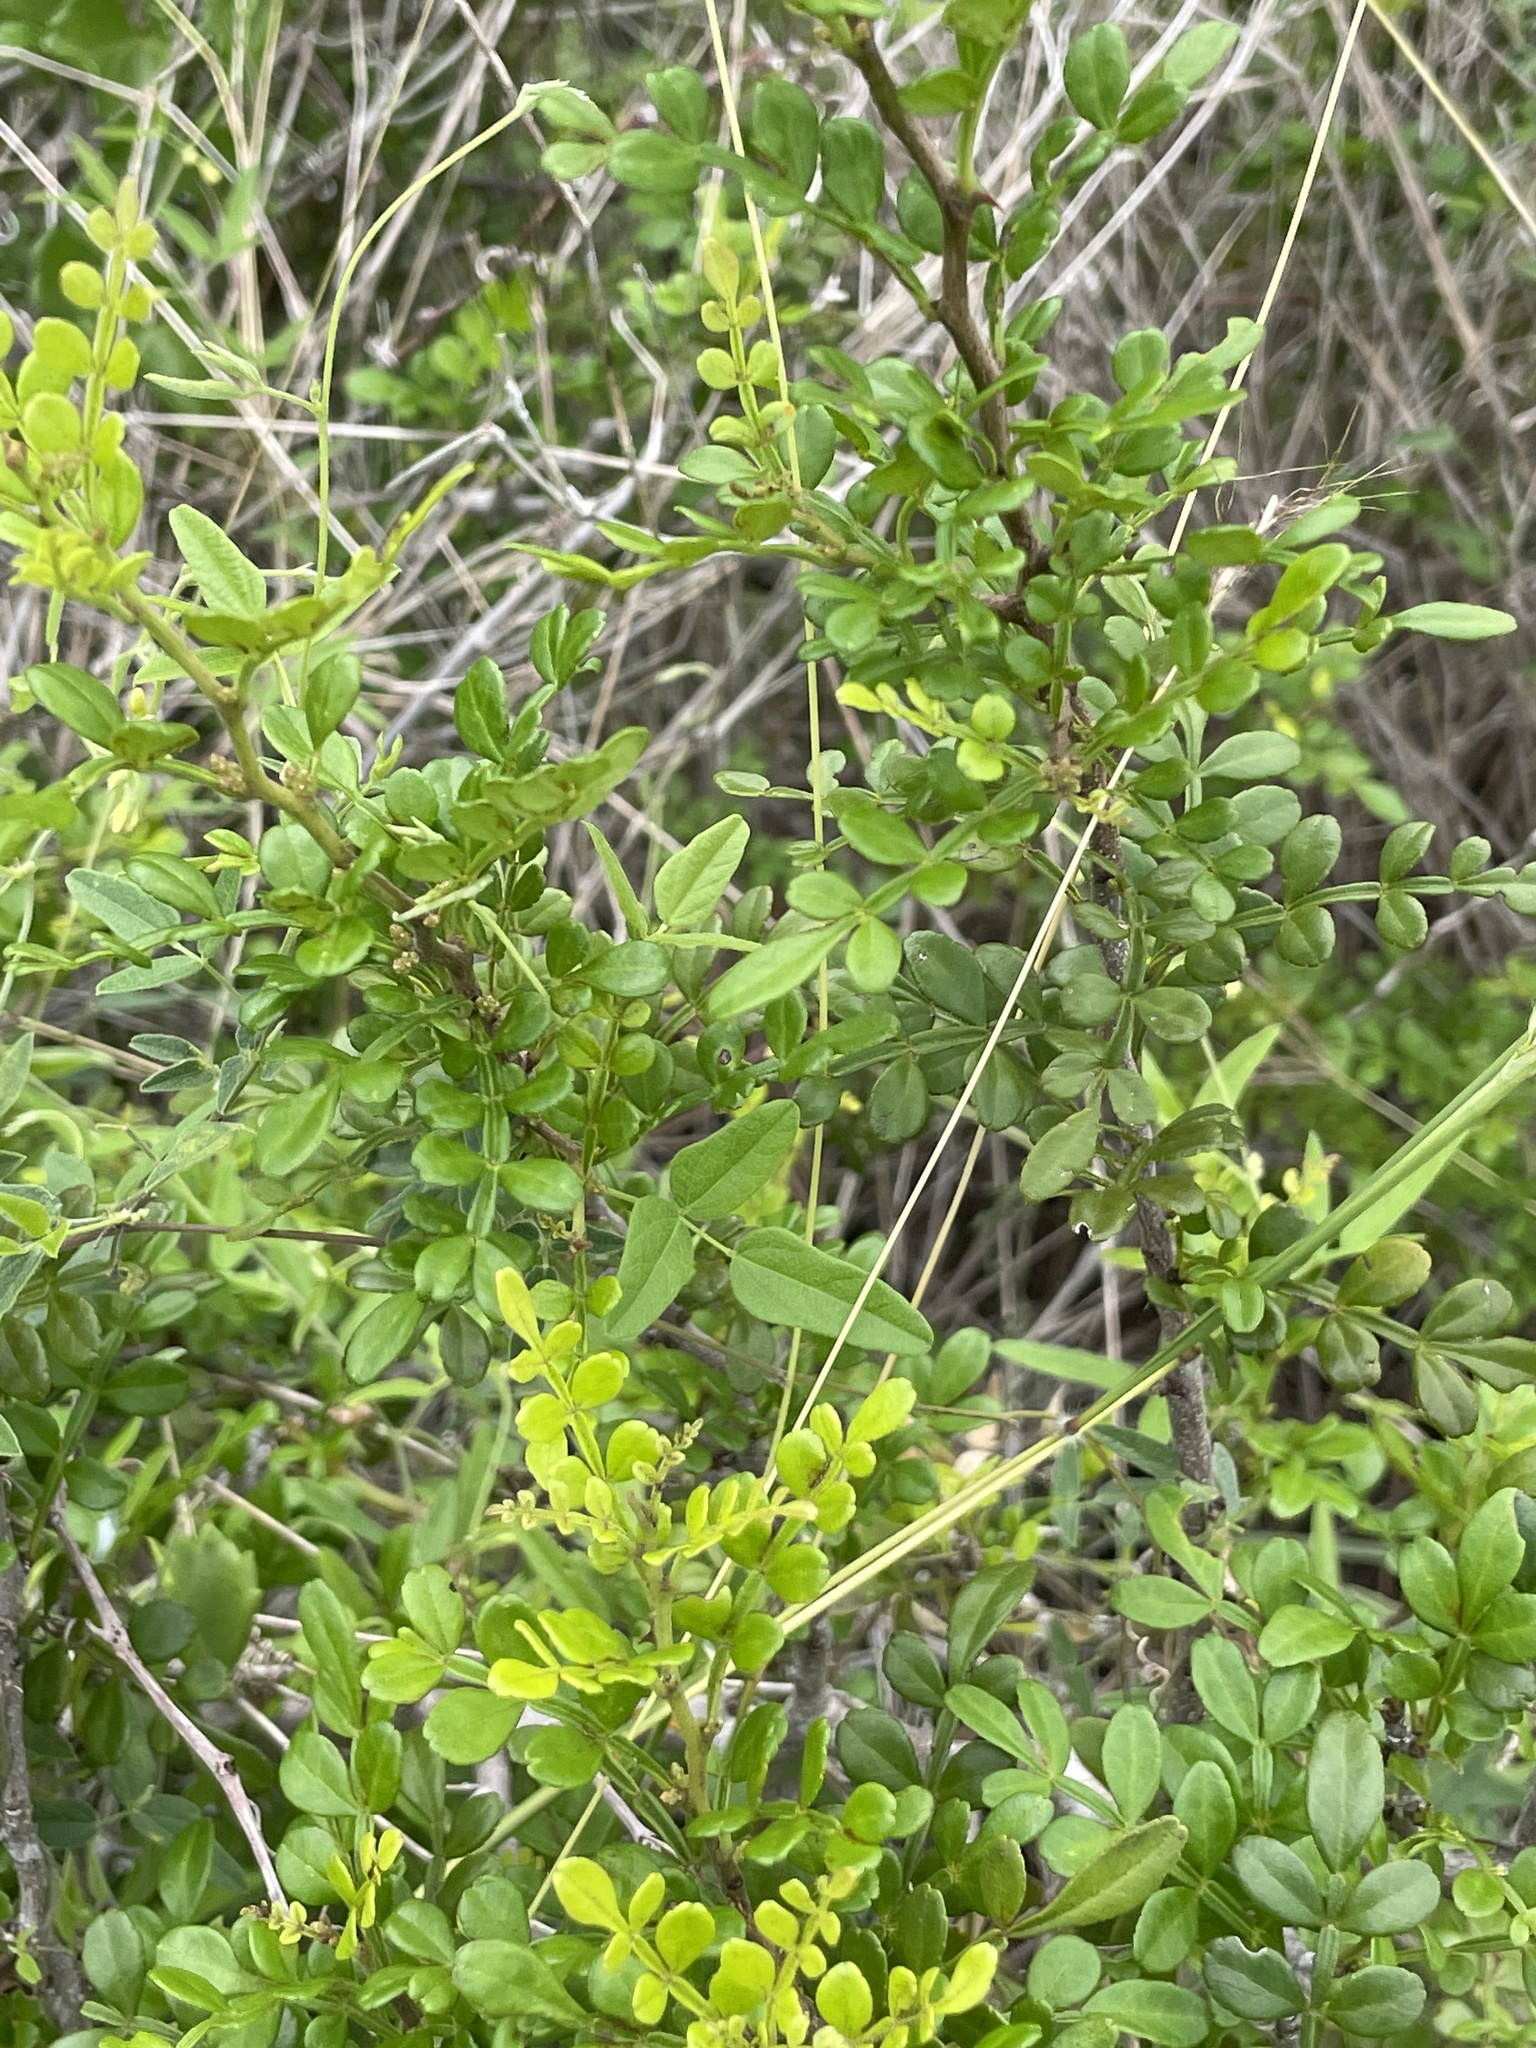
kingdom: Plantae
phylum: Tracheophyta
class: Magnoliopsida
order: Sapindales
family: Rutaceae
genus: Zanthoxylum
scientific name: Zanthoxylum fagara
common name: Lime prickly-ash
